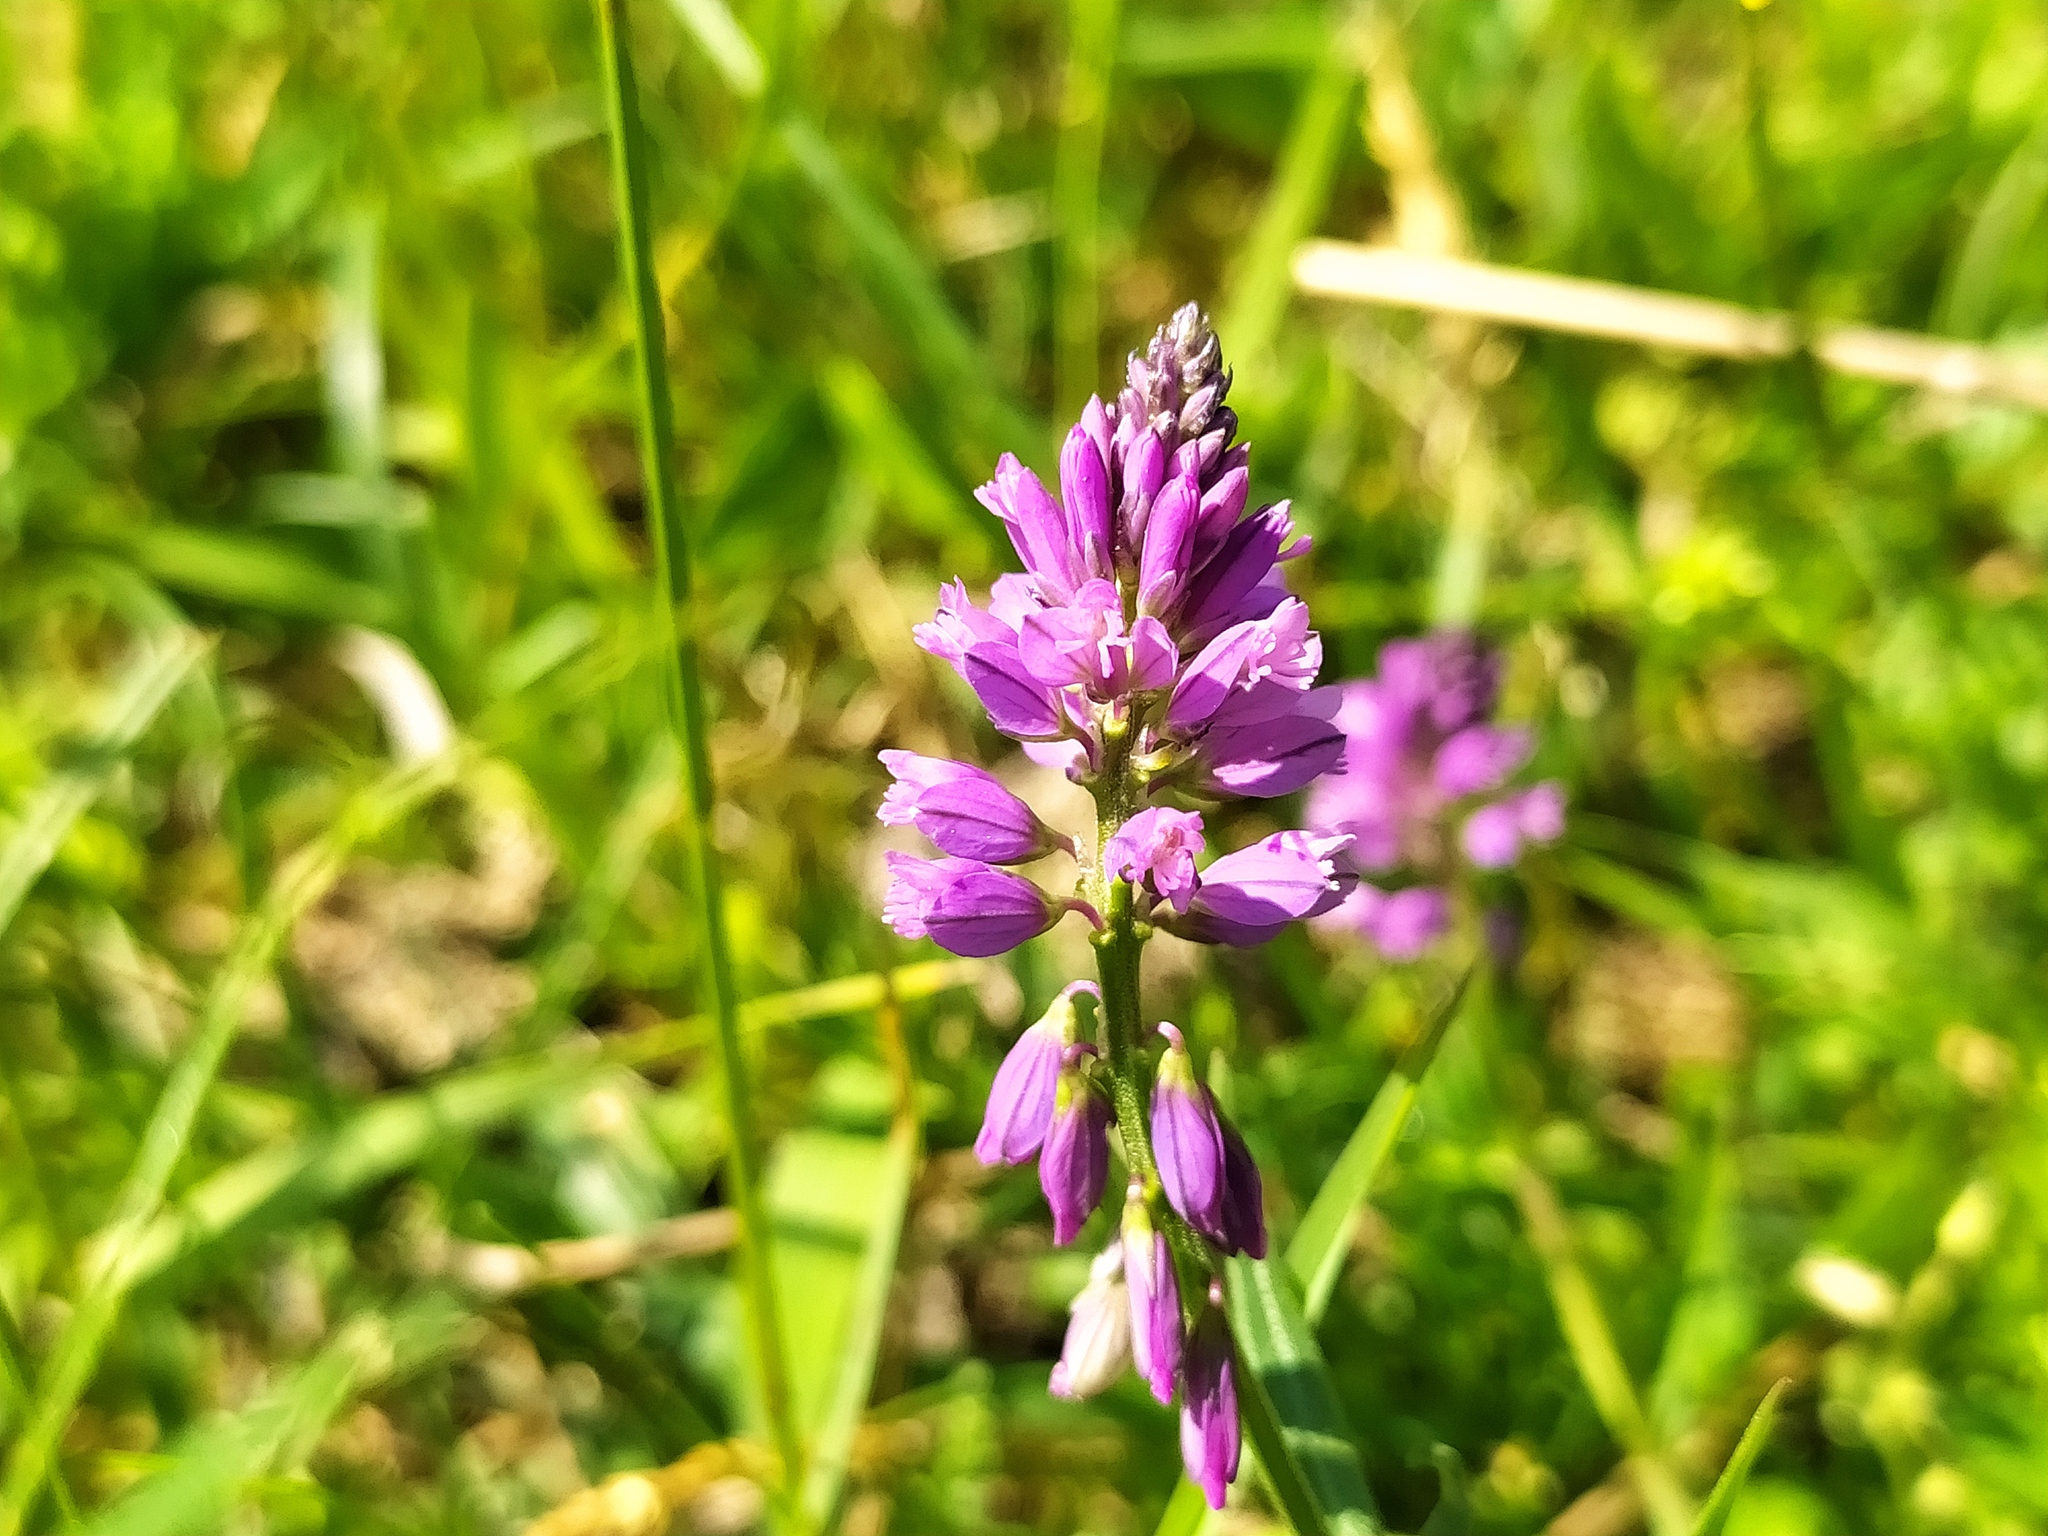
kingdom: Plantae
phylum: Tracheophyta
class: Magnoliopsida
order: Fabales
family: Polygalaceae
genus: Polygala
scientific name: Polygala comosa
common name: Tufted milkwort
